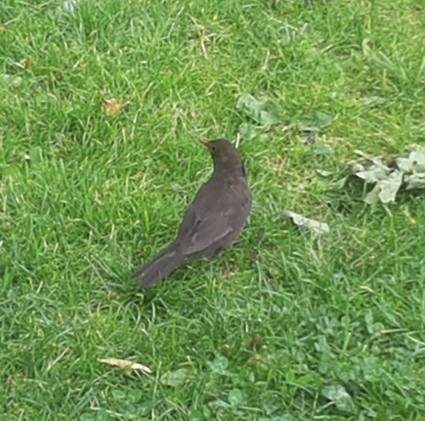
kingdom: Animalia
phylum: Chordata
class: Aves
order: Passeriformes
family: Turdidae
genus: Turdus
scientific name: Turdus merula
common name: Common blackbird
